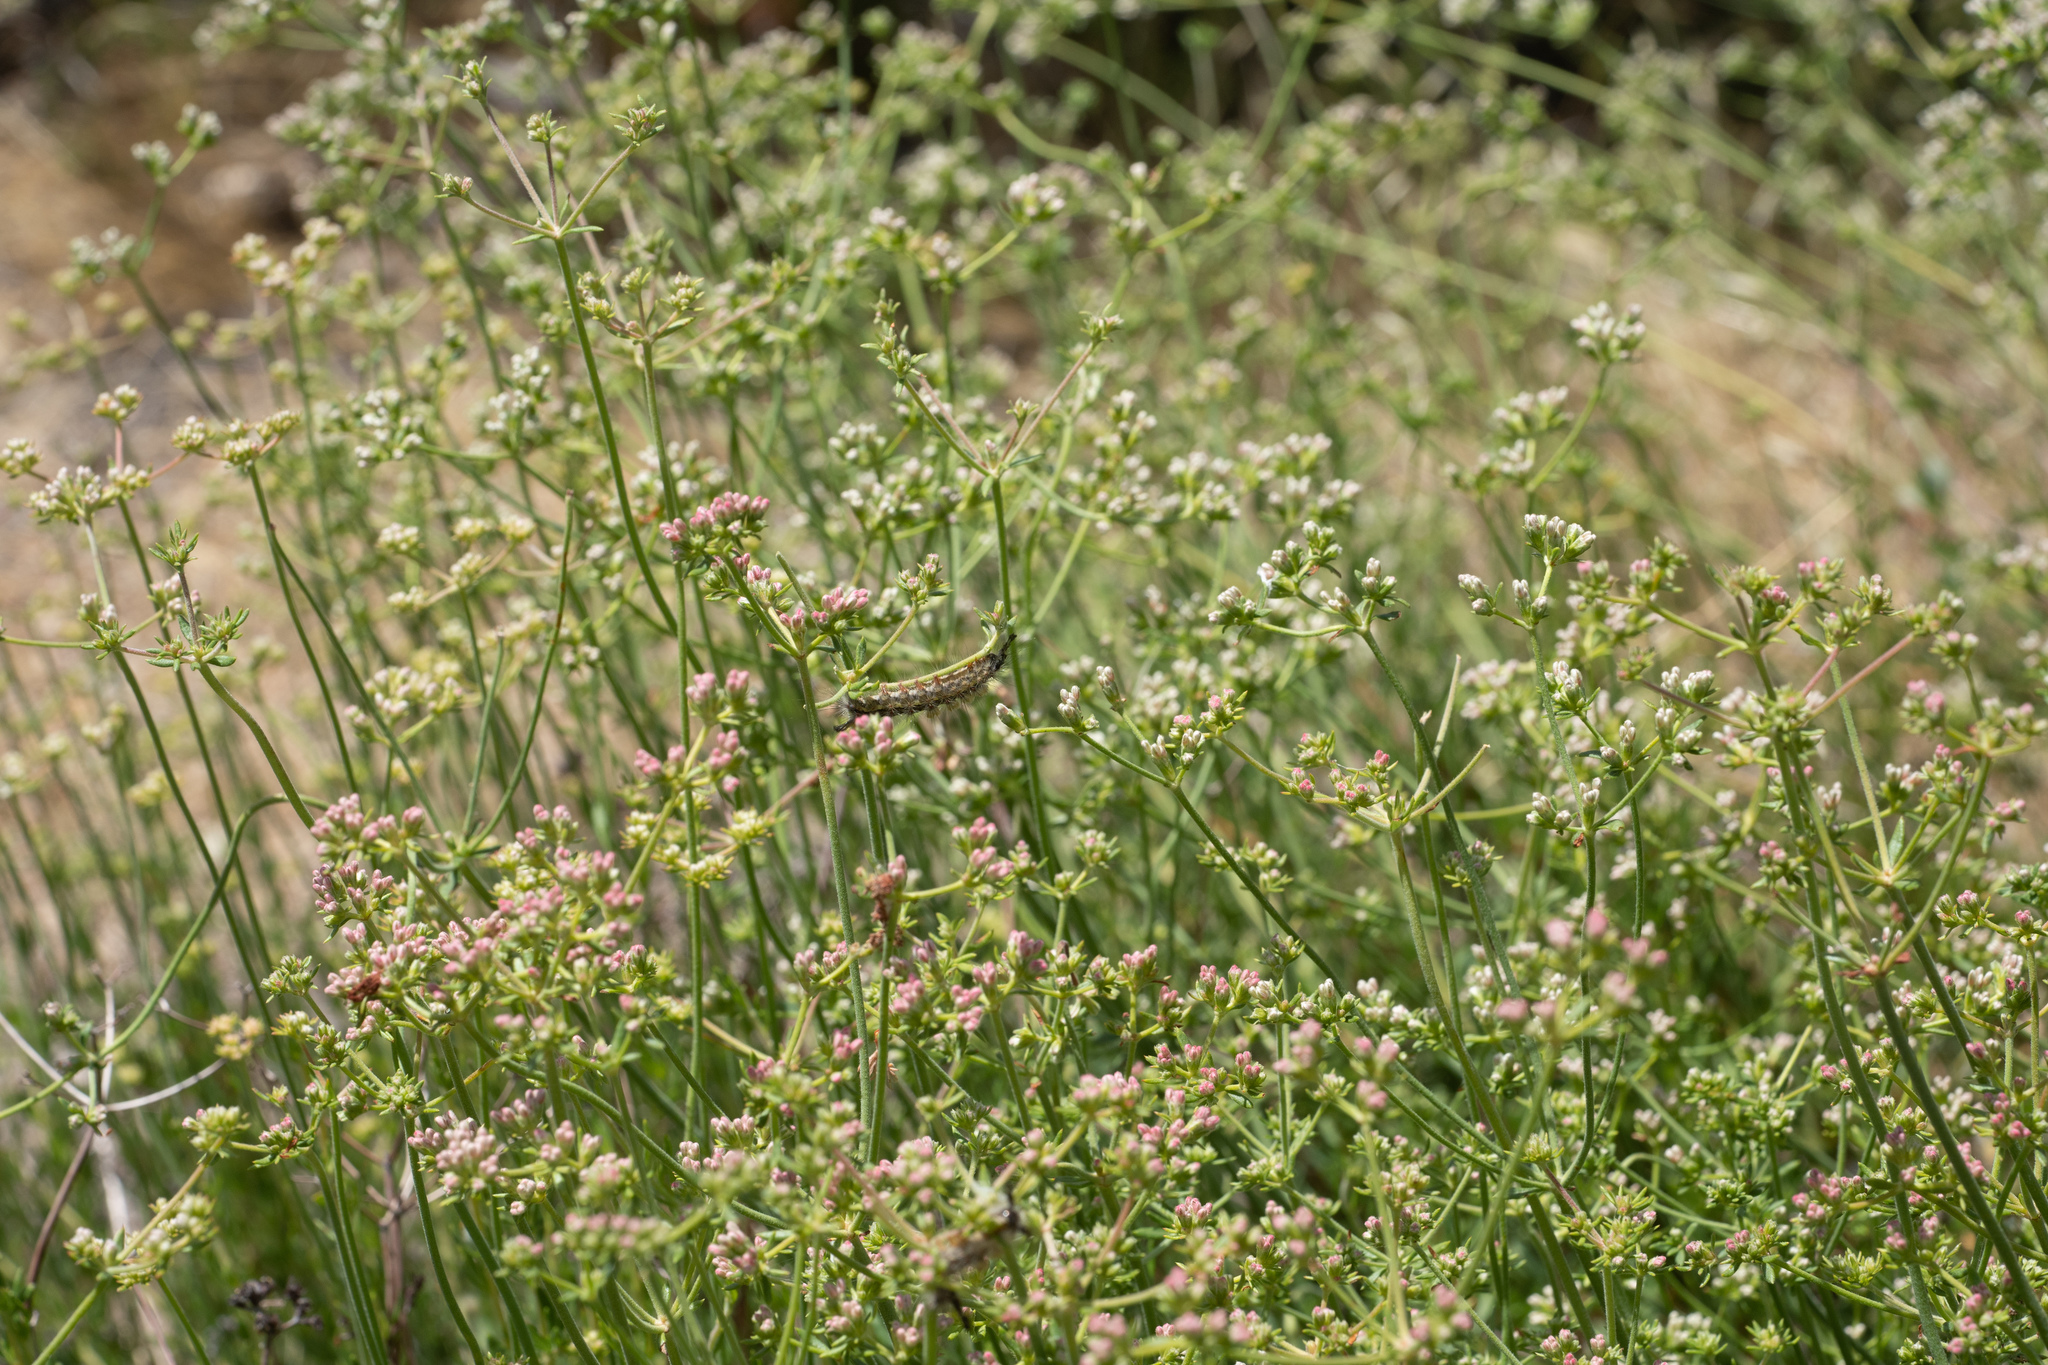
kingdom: Plantae
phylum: Tracheophyta
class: Magnoliopsida
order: Caryophyllales
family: Polygonaceae
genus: Eriogonum
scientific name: Eriogonum fasciculatum
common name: California wild buckwheat
